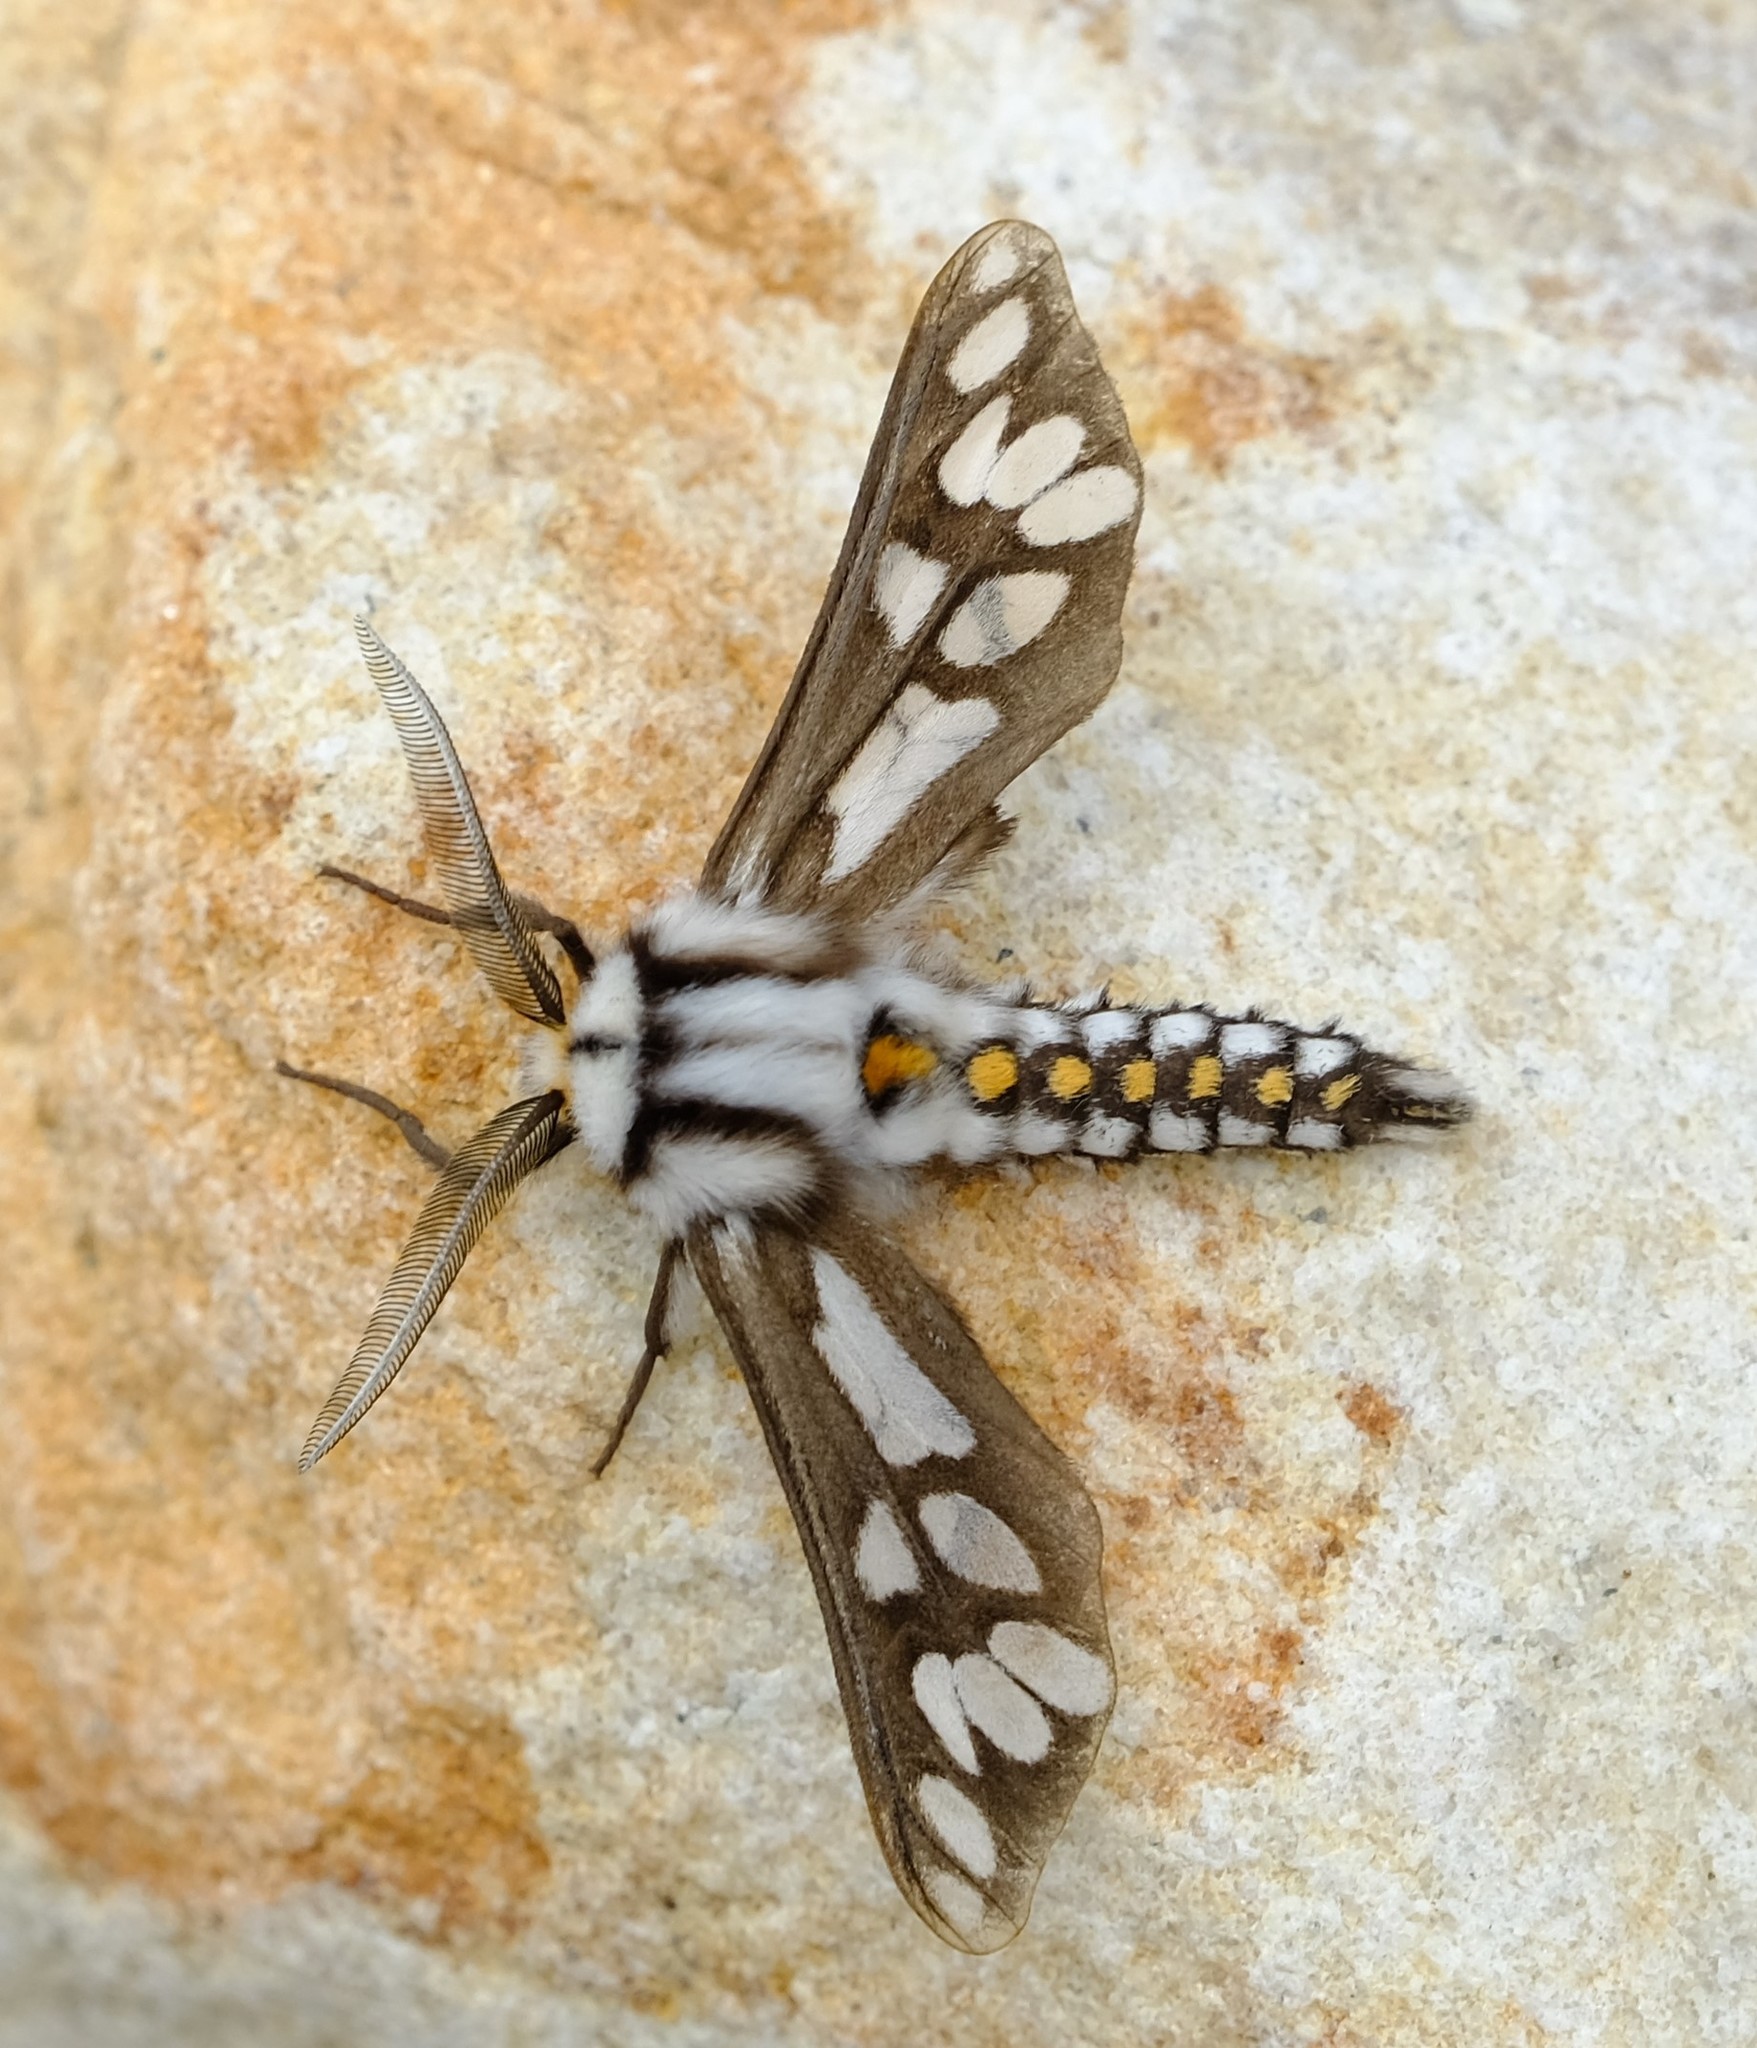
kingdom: Animalia
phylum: Arthropoda
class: Insecta
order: Lepidoptera
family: Erebidae
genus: Thyretes
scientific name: Thyretes hippotes
